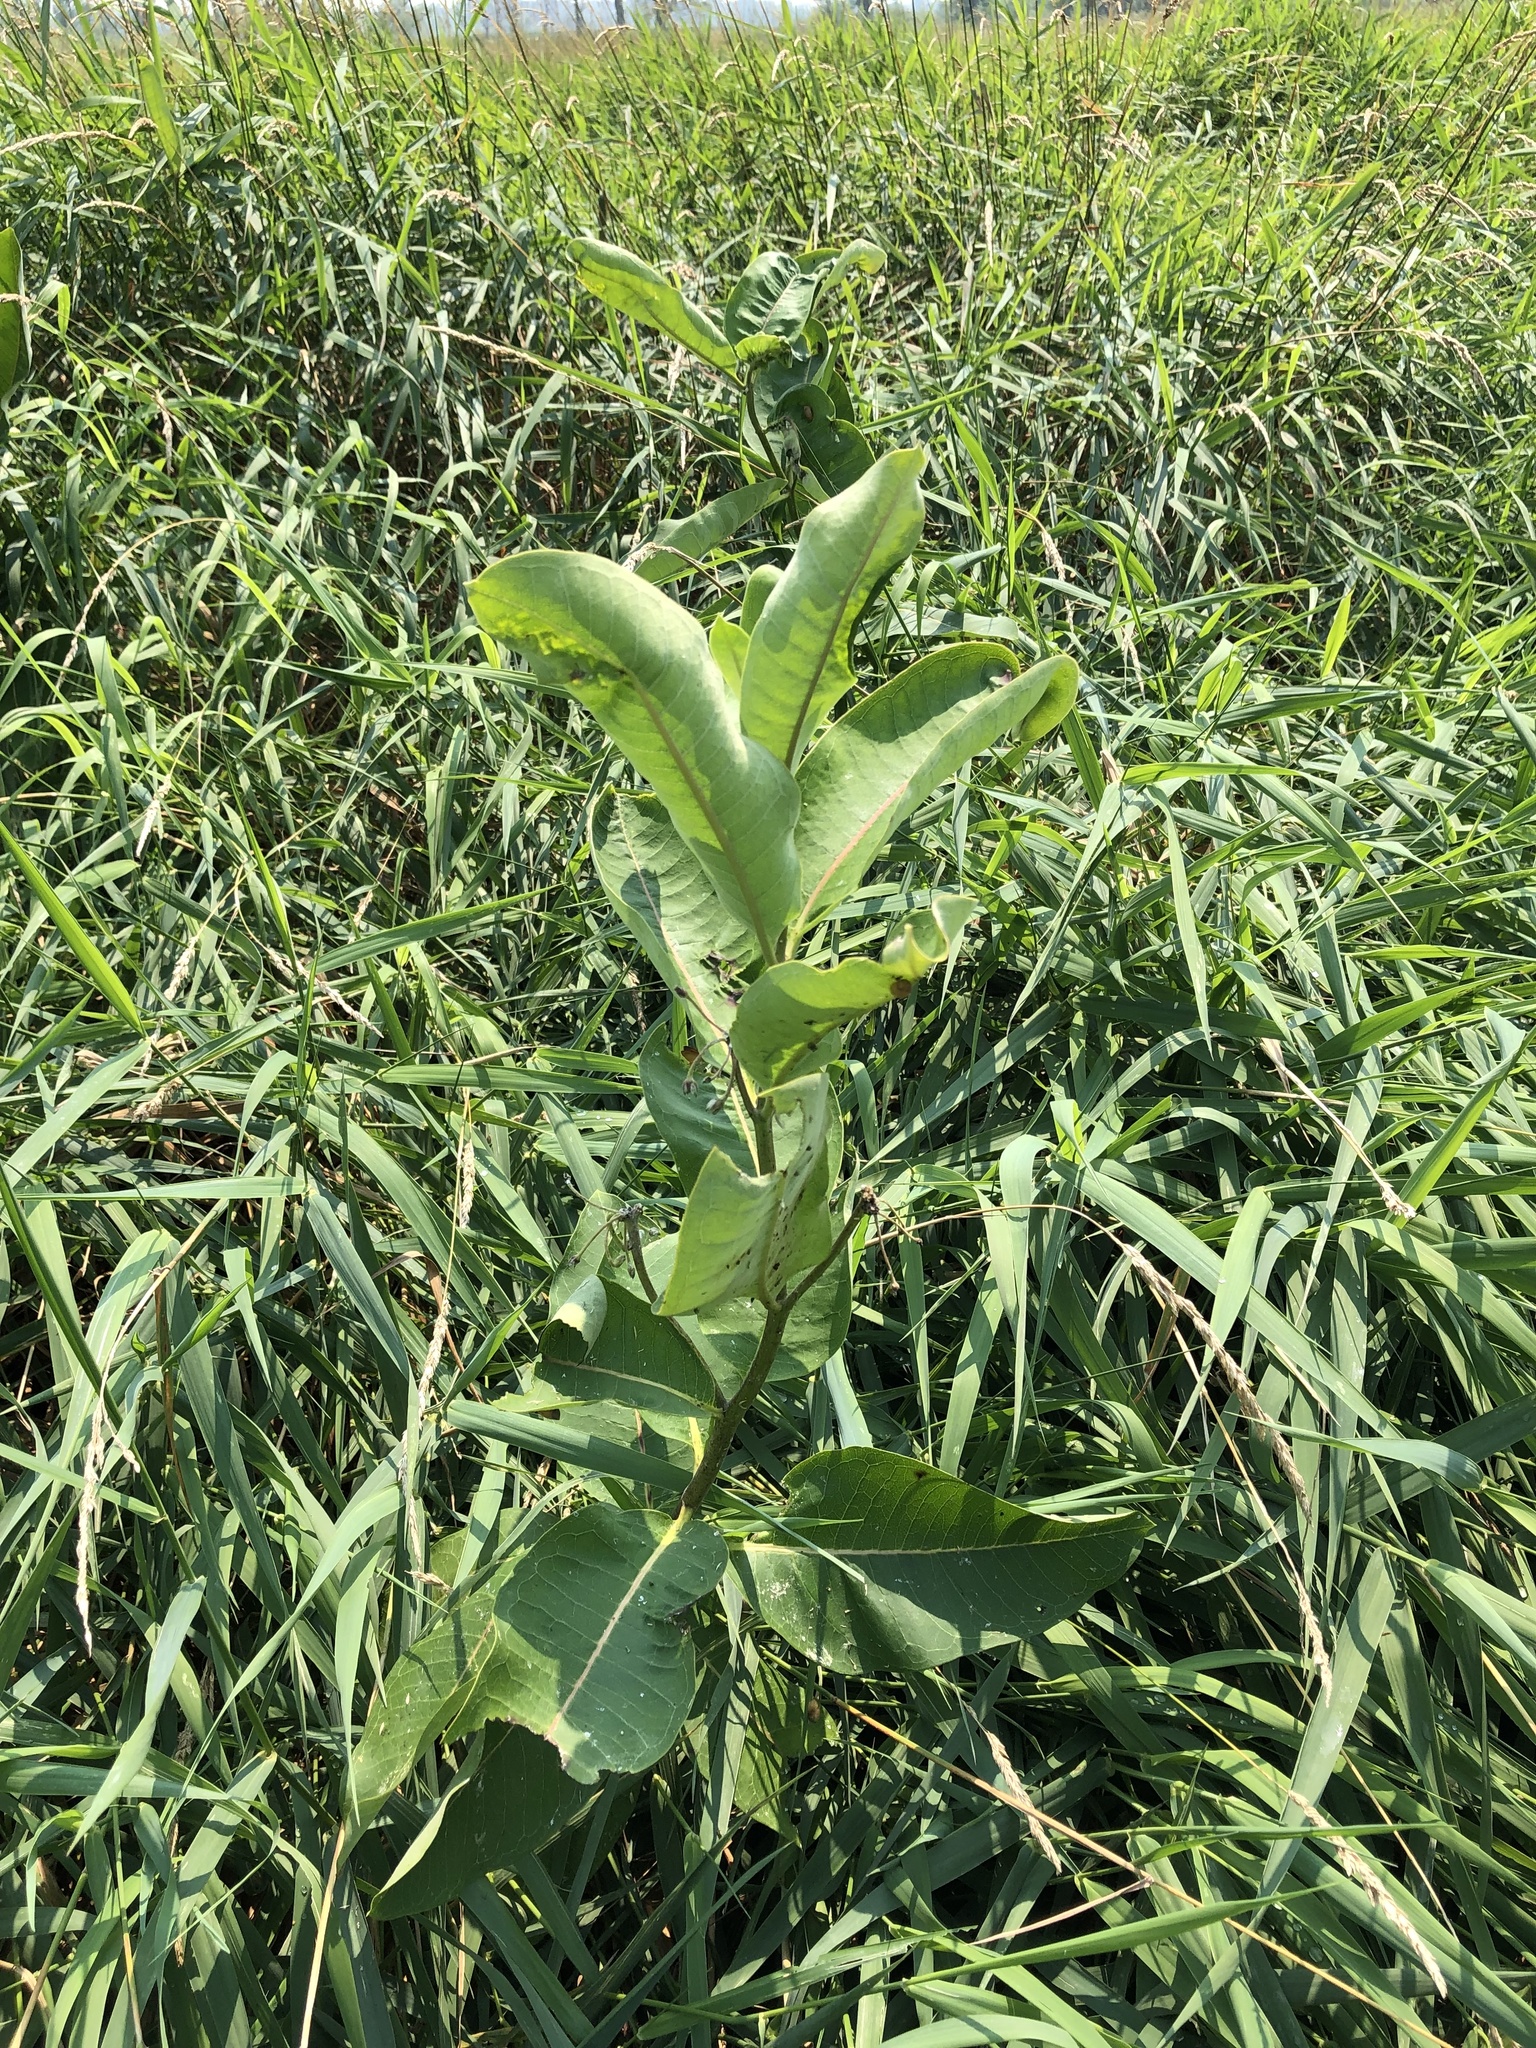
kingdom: Plantae
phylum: Tracheophyta
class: Magnoliopsida
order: Gentianales
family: Apocynaceae
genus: Asclepias
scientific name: Asclepias syriaca
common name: Common milkweed
